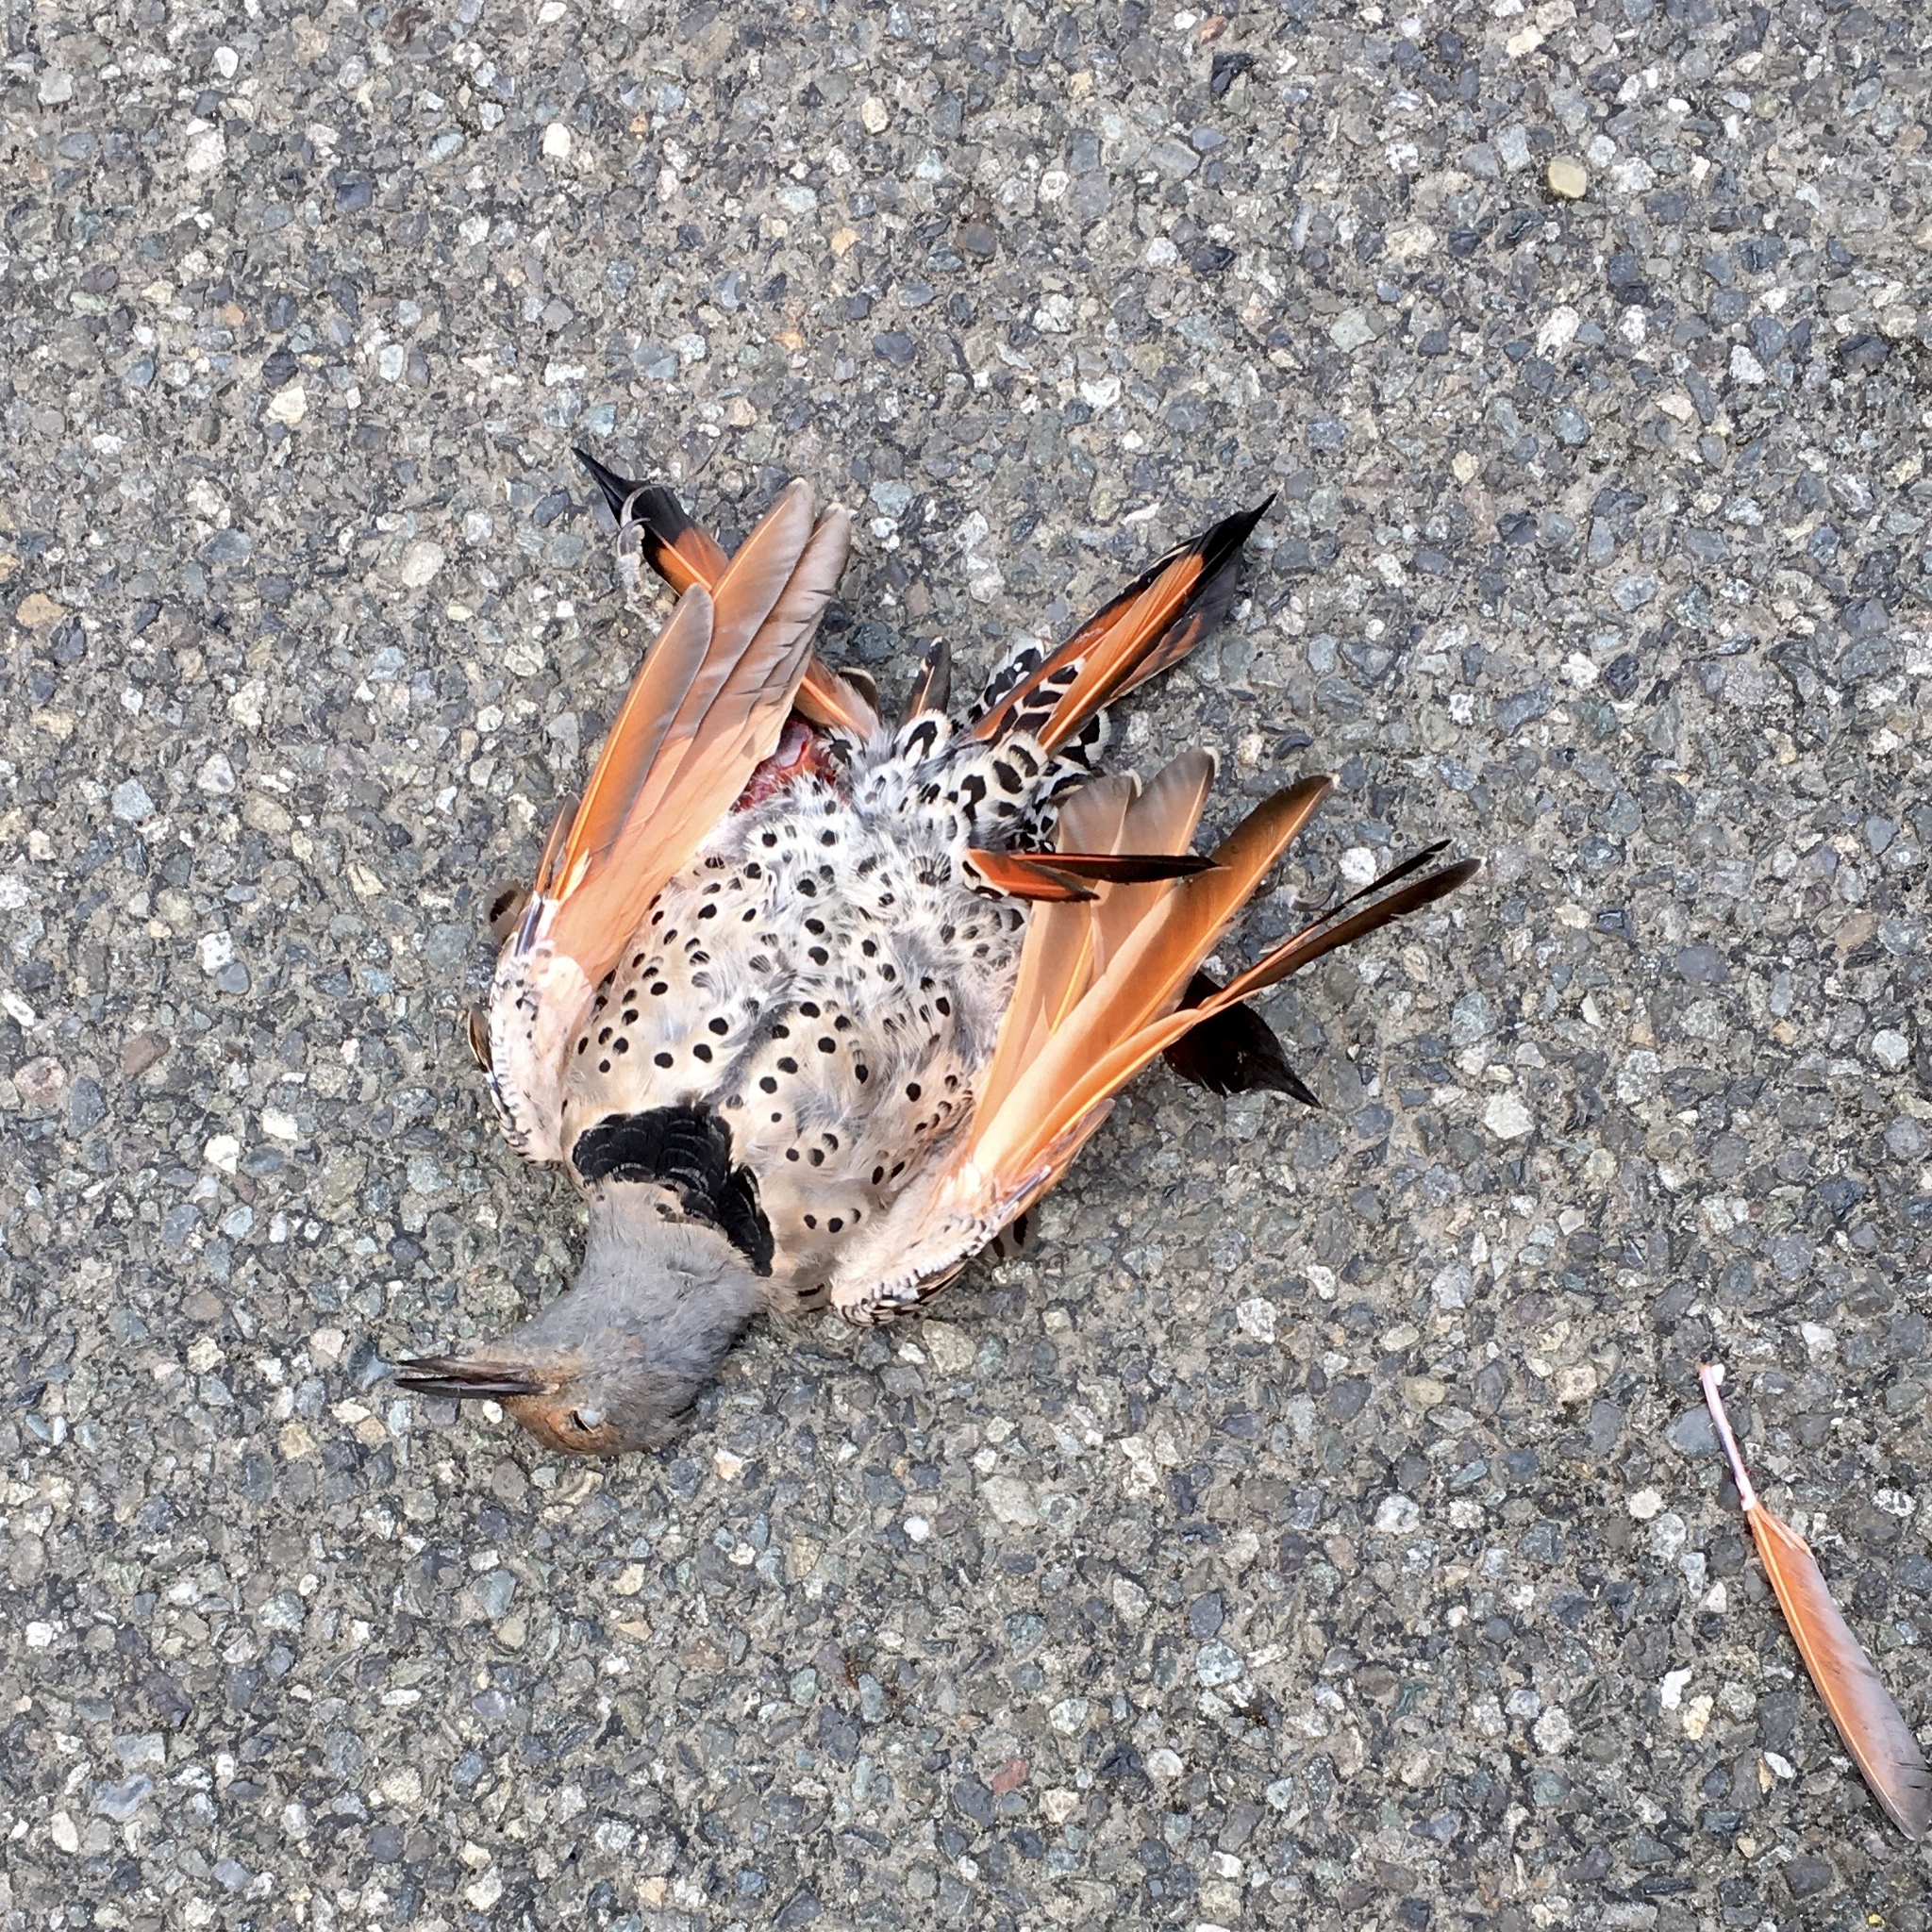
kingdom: Animalia
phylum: Chordata
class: Aves
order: Piciformes
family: Picidae
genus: Colaptes
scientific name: Colaptes auratus
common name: Northern flicker
